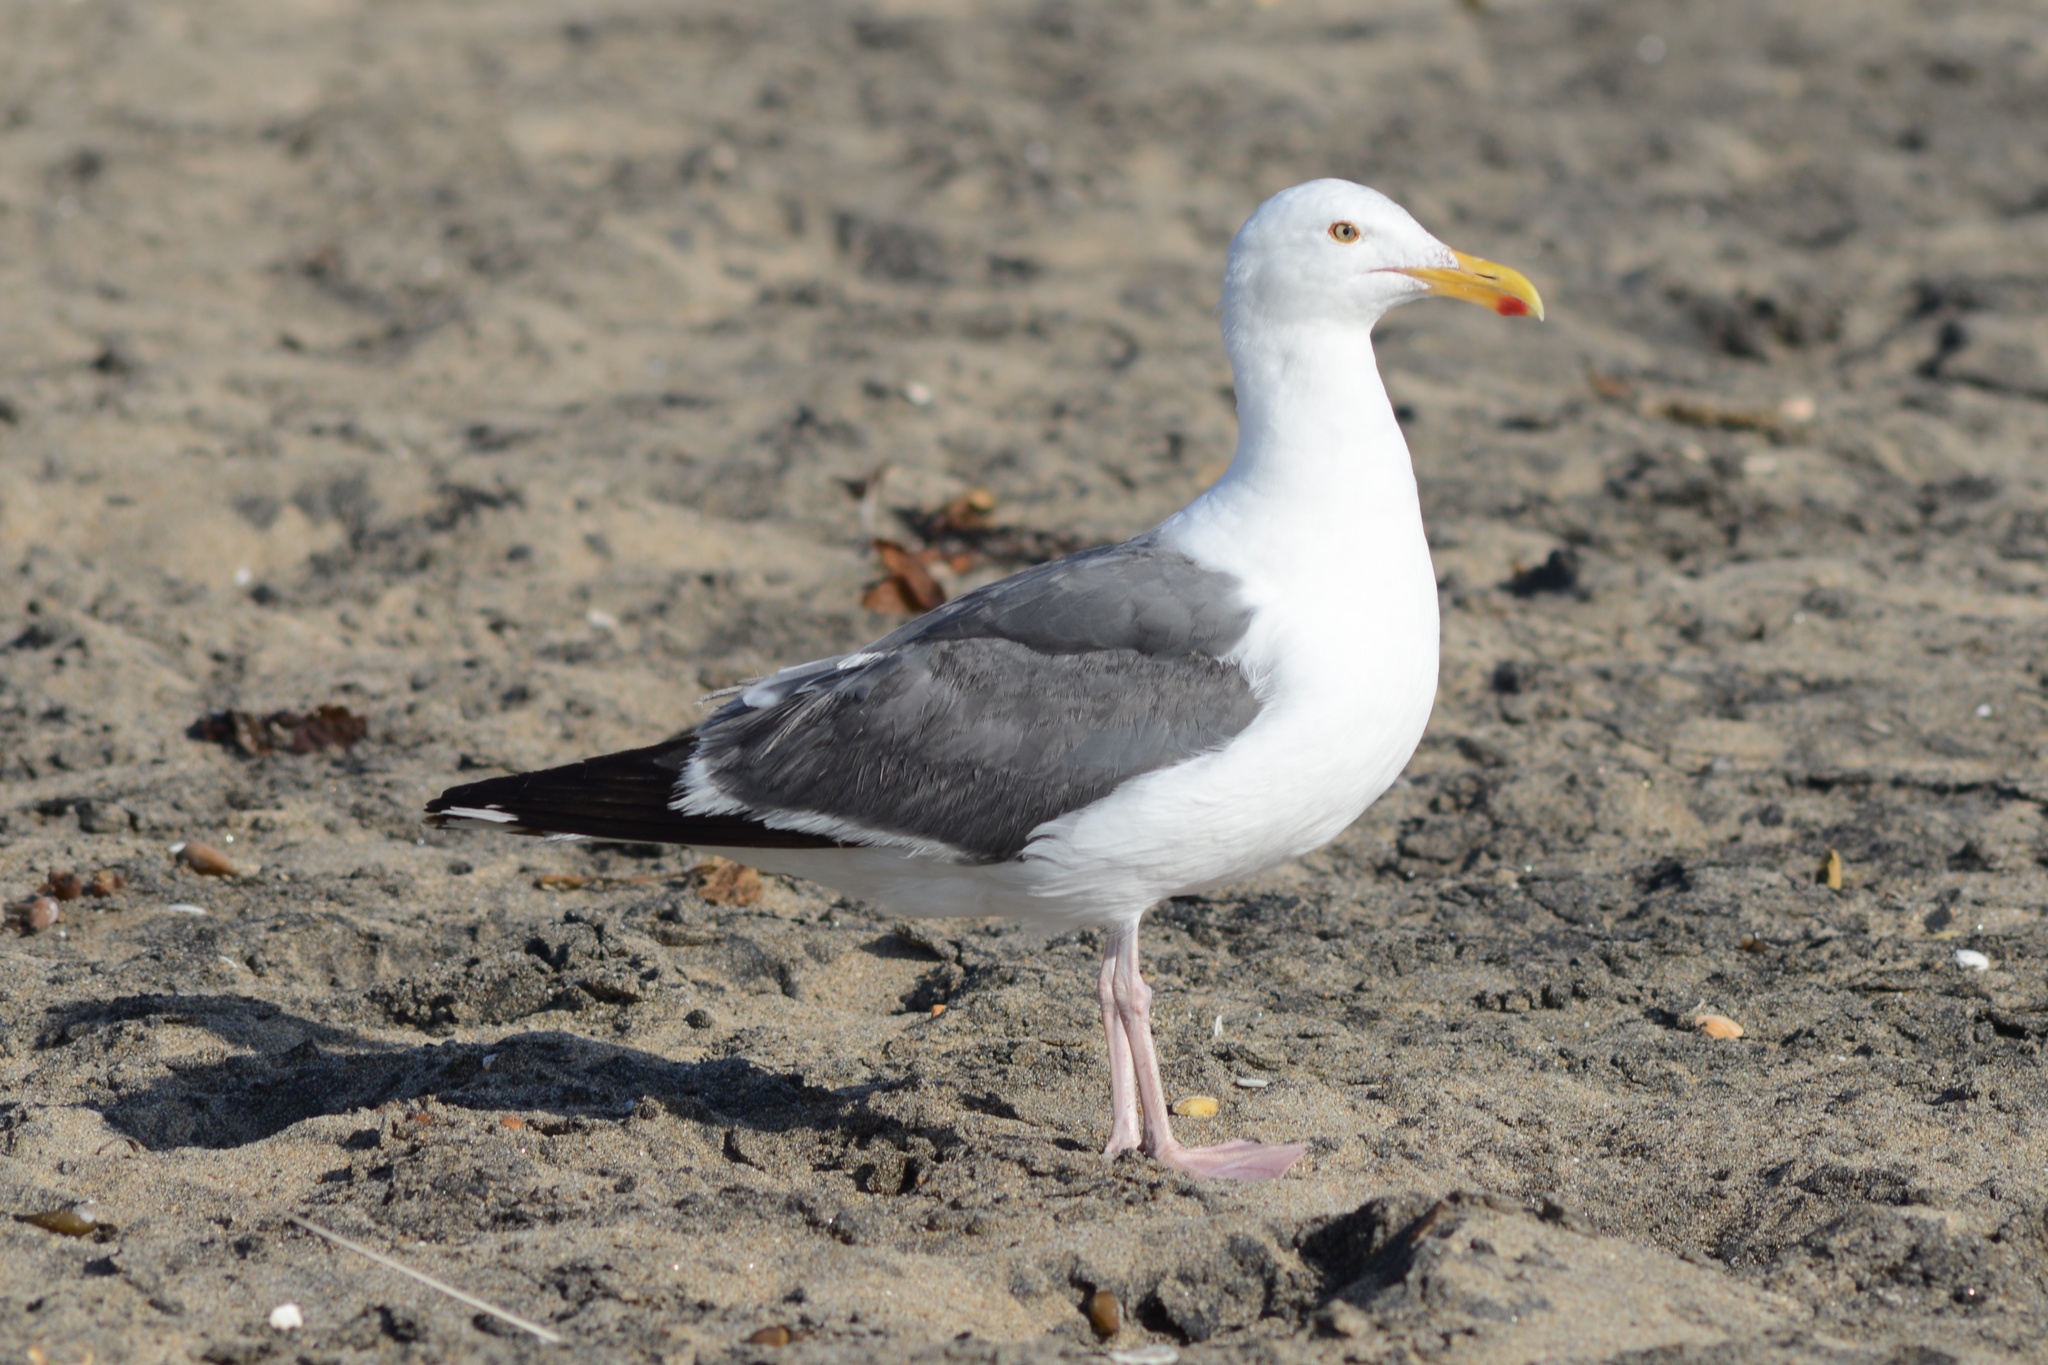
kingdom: Animalia
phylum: Chordata
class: Aves
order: Charadriiformes
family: Laridae
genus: Larus
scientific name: Larus occidentalis
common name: Western gull
